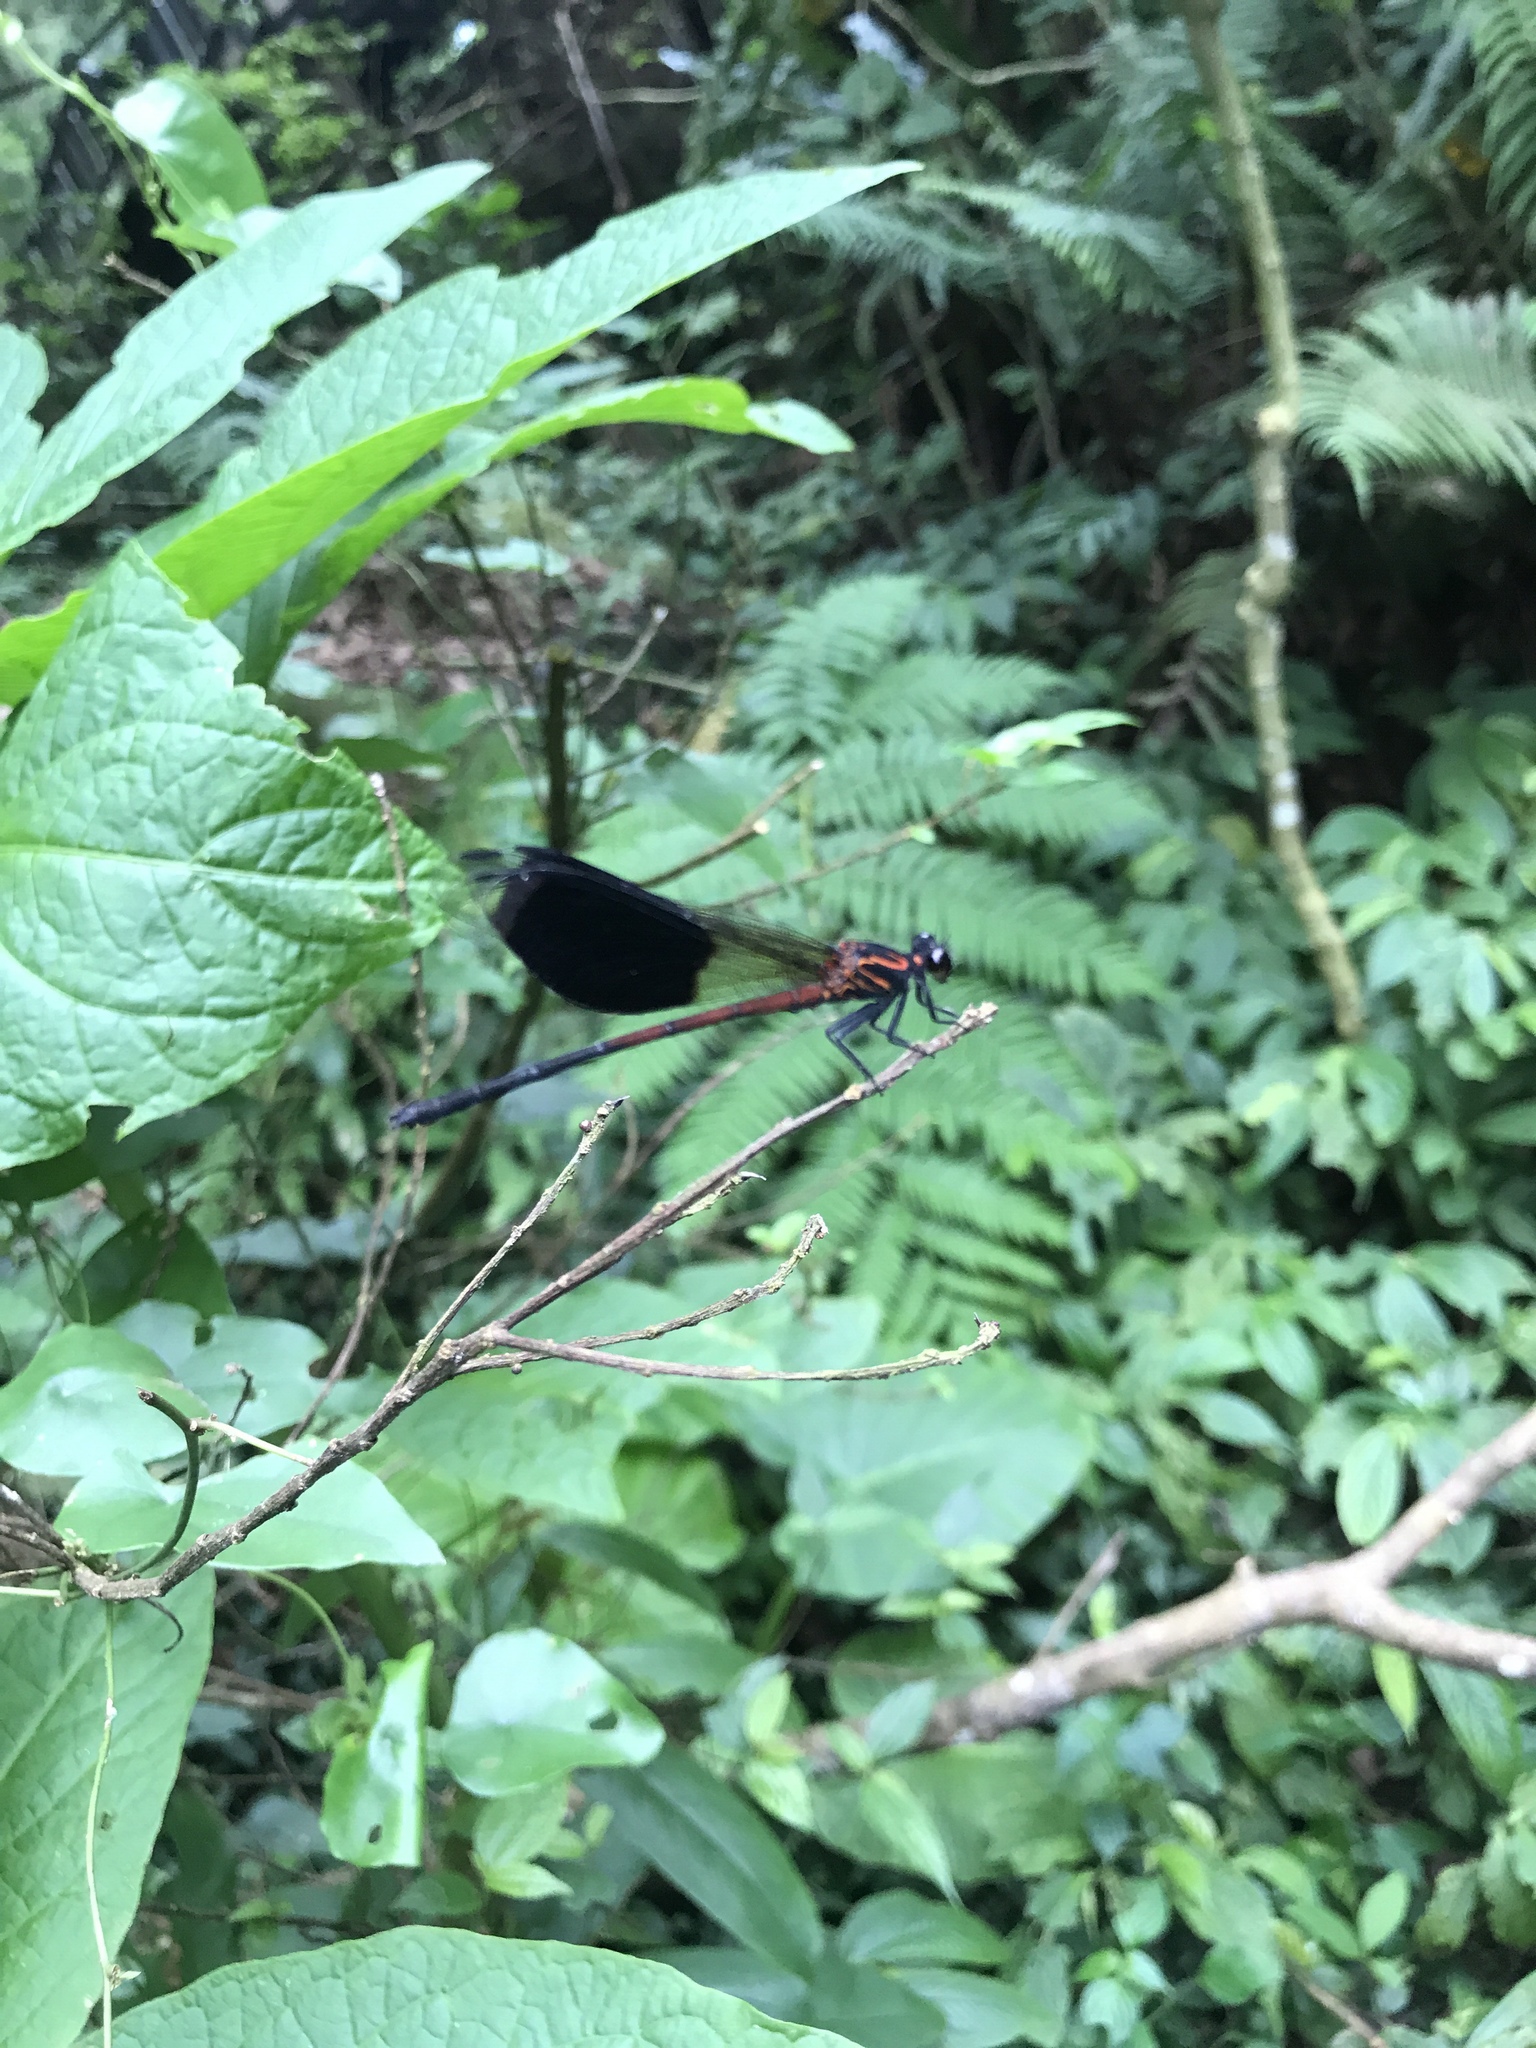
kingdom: Animalia
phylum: Arthropoda
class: Insecta
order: Odonata
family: Euphaeidae
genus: Euphaea
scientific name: Euphaea formosa
